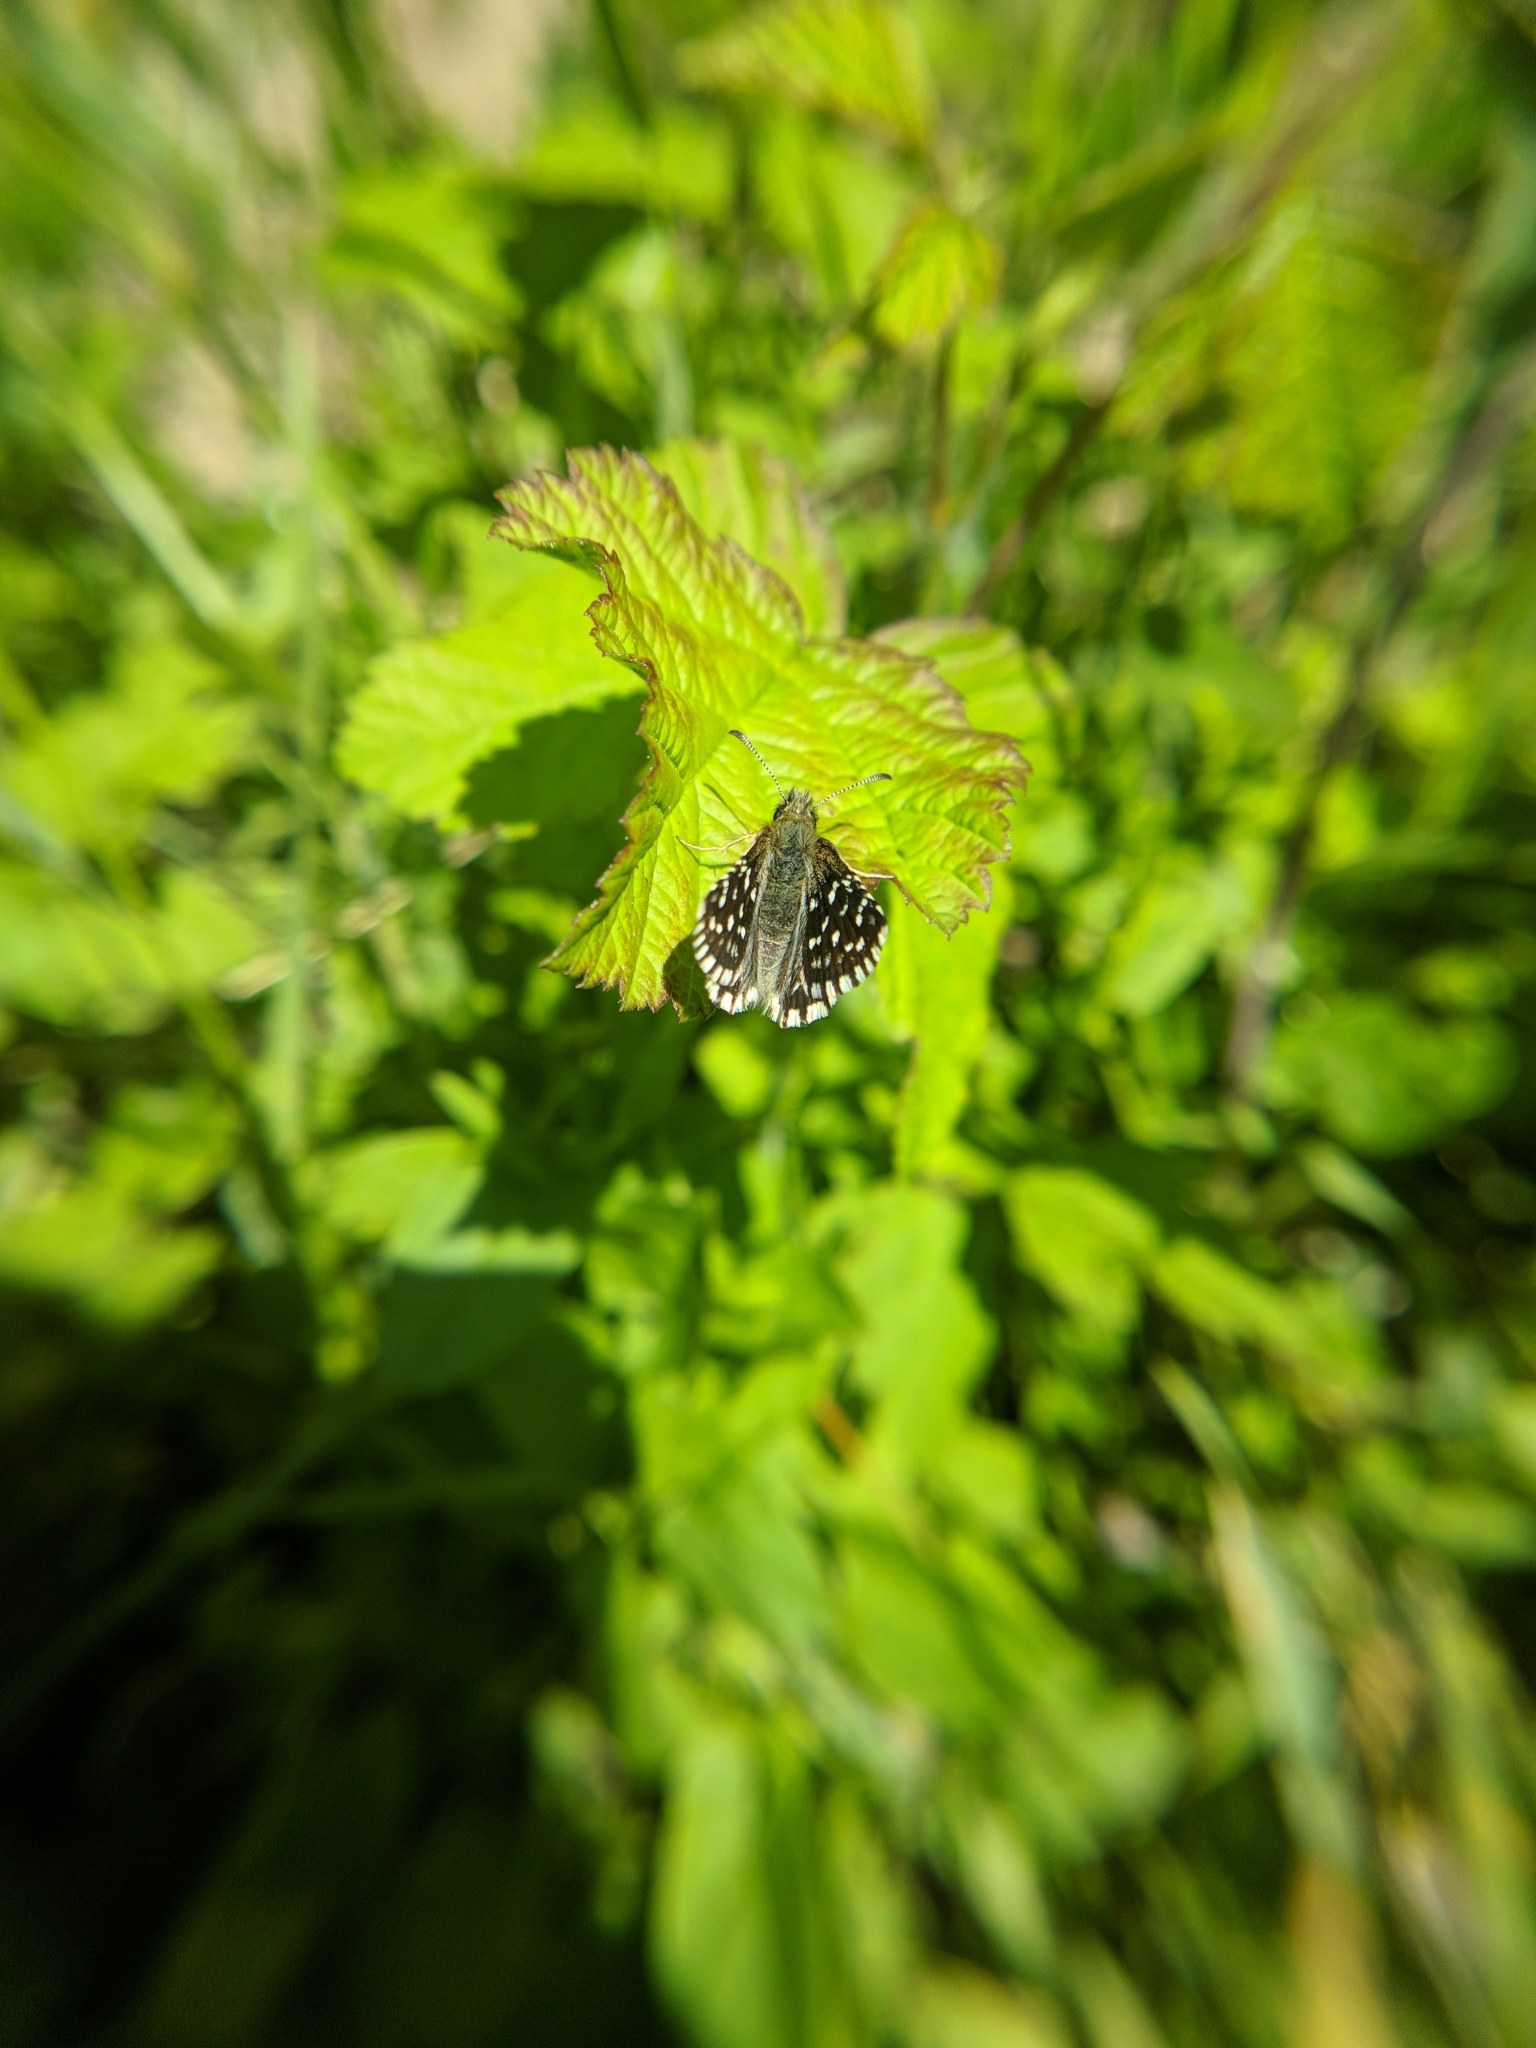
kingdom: Animalia
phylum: Arthropoda
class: Insecta
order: Lepidoptera
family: Hesperiidae
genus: Pyrgus
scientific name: Pyrgus malvae
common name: Grizzled skipper
